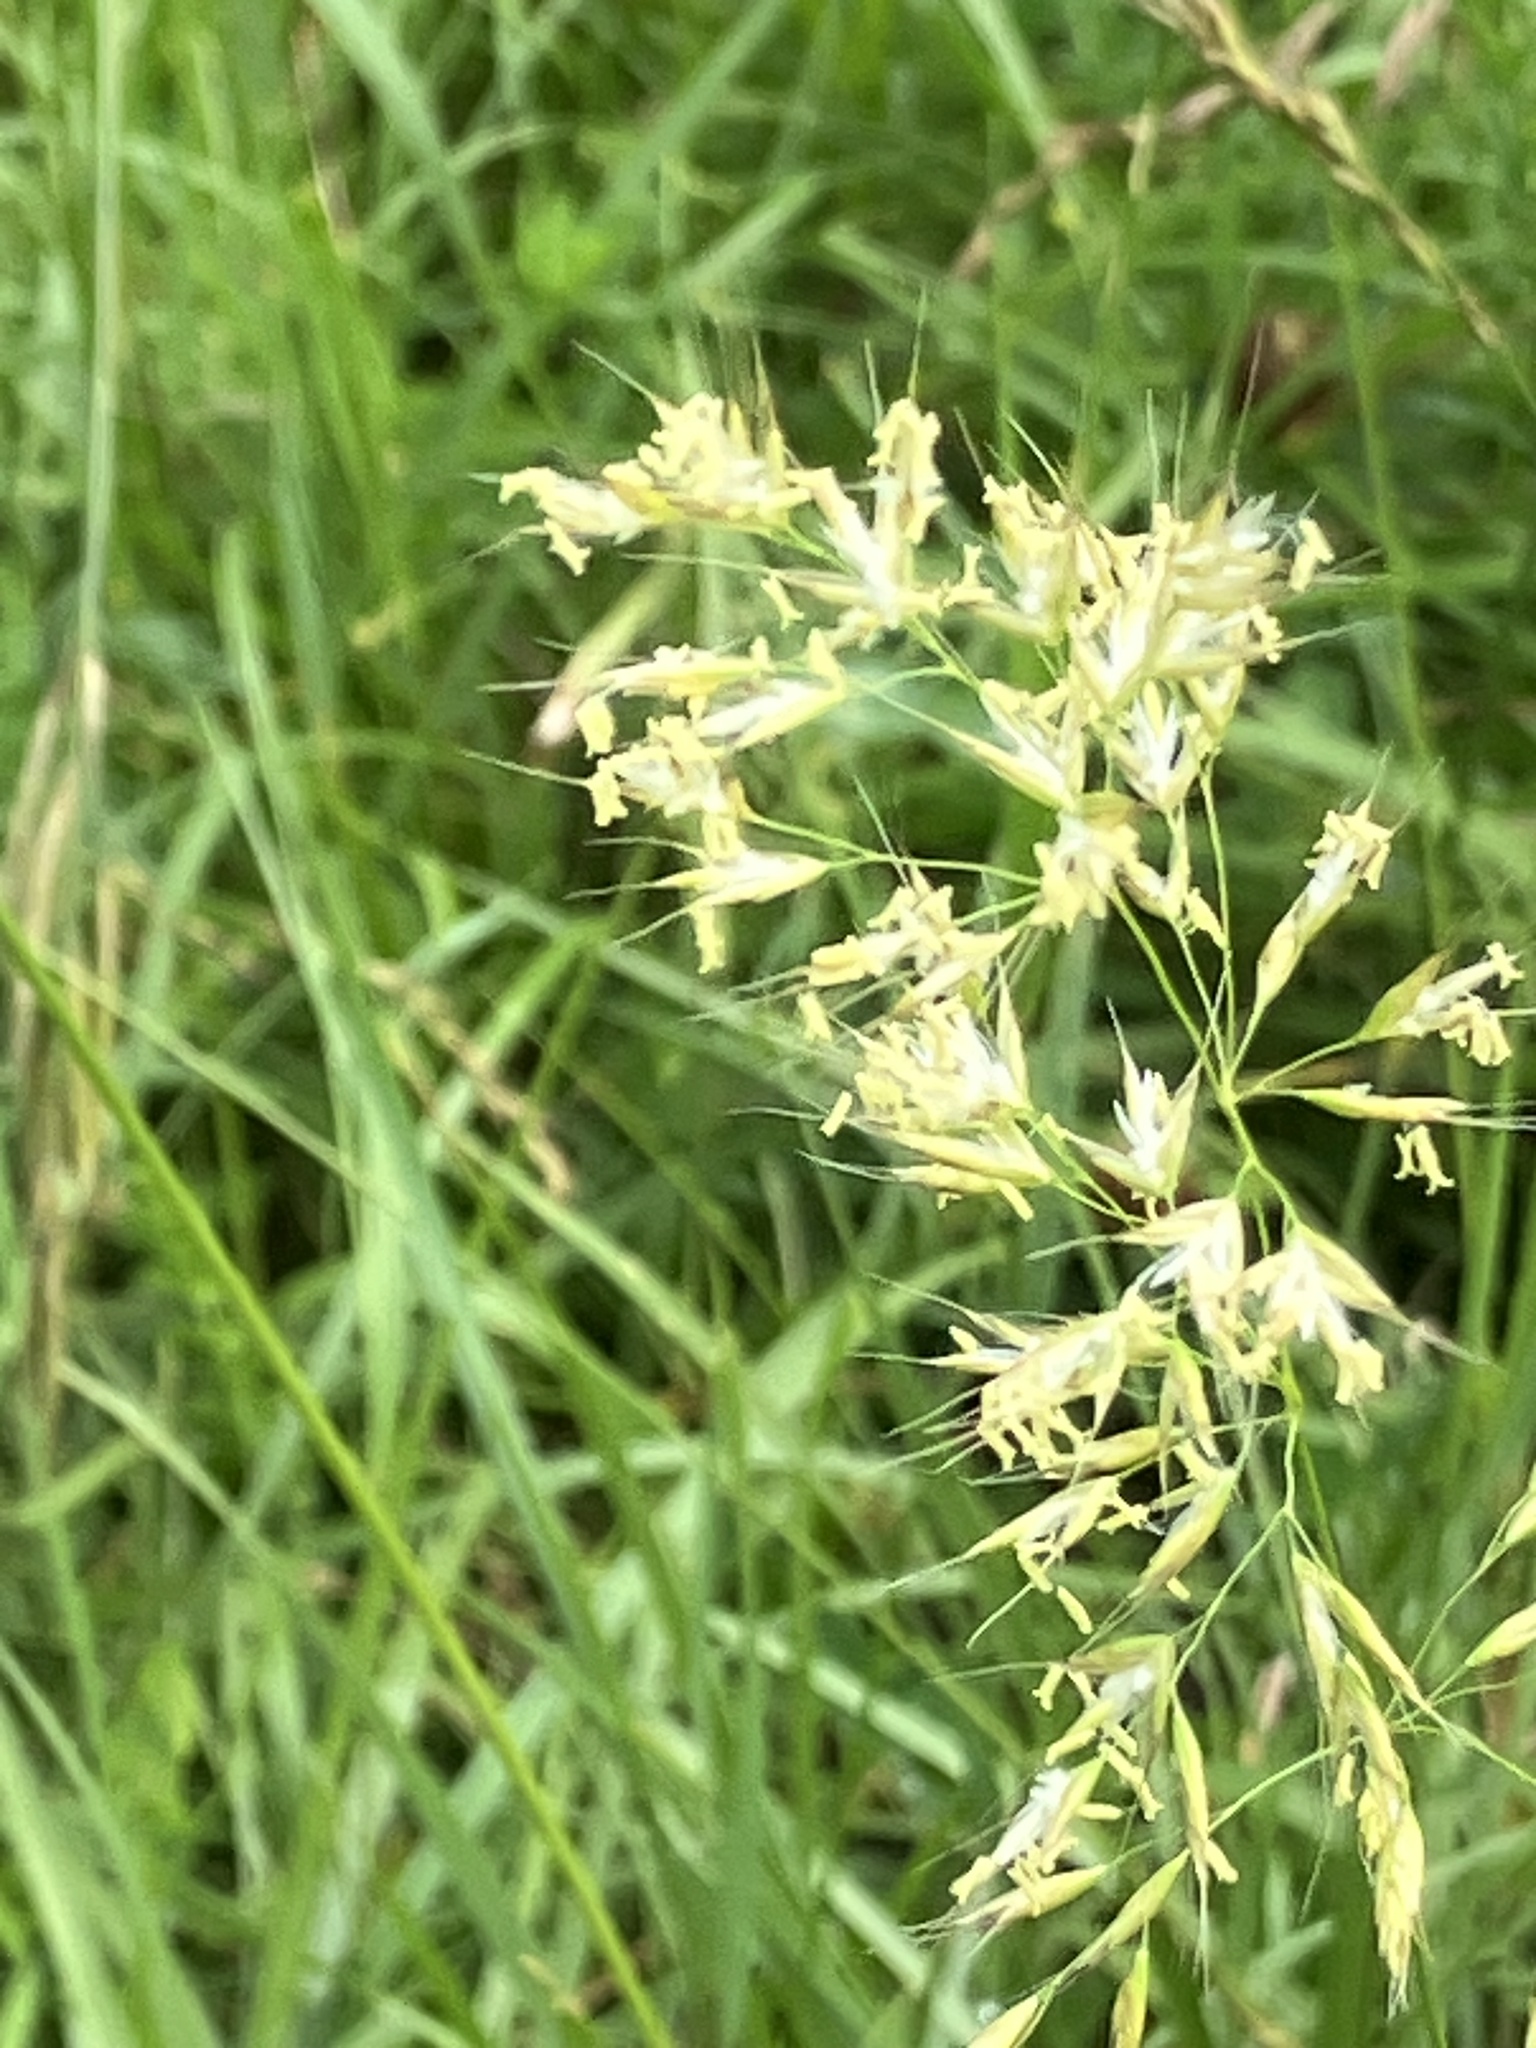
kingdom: Plantae
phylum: Tracheophyta
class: Liliopsida
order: Poales
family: Poaceae
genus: Trisetum
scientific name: Trisetum flavescens
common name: Yellow oat-grass
